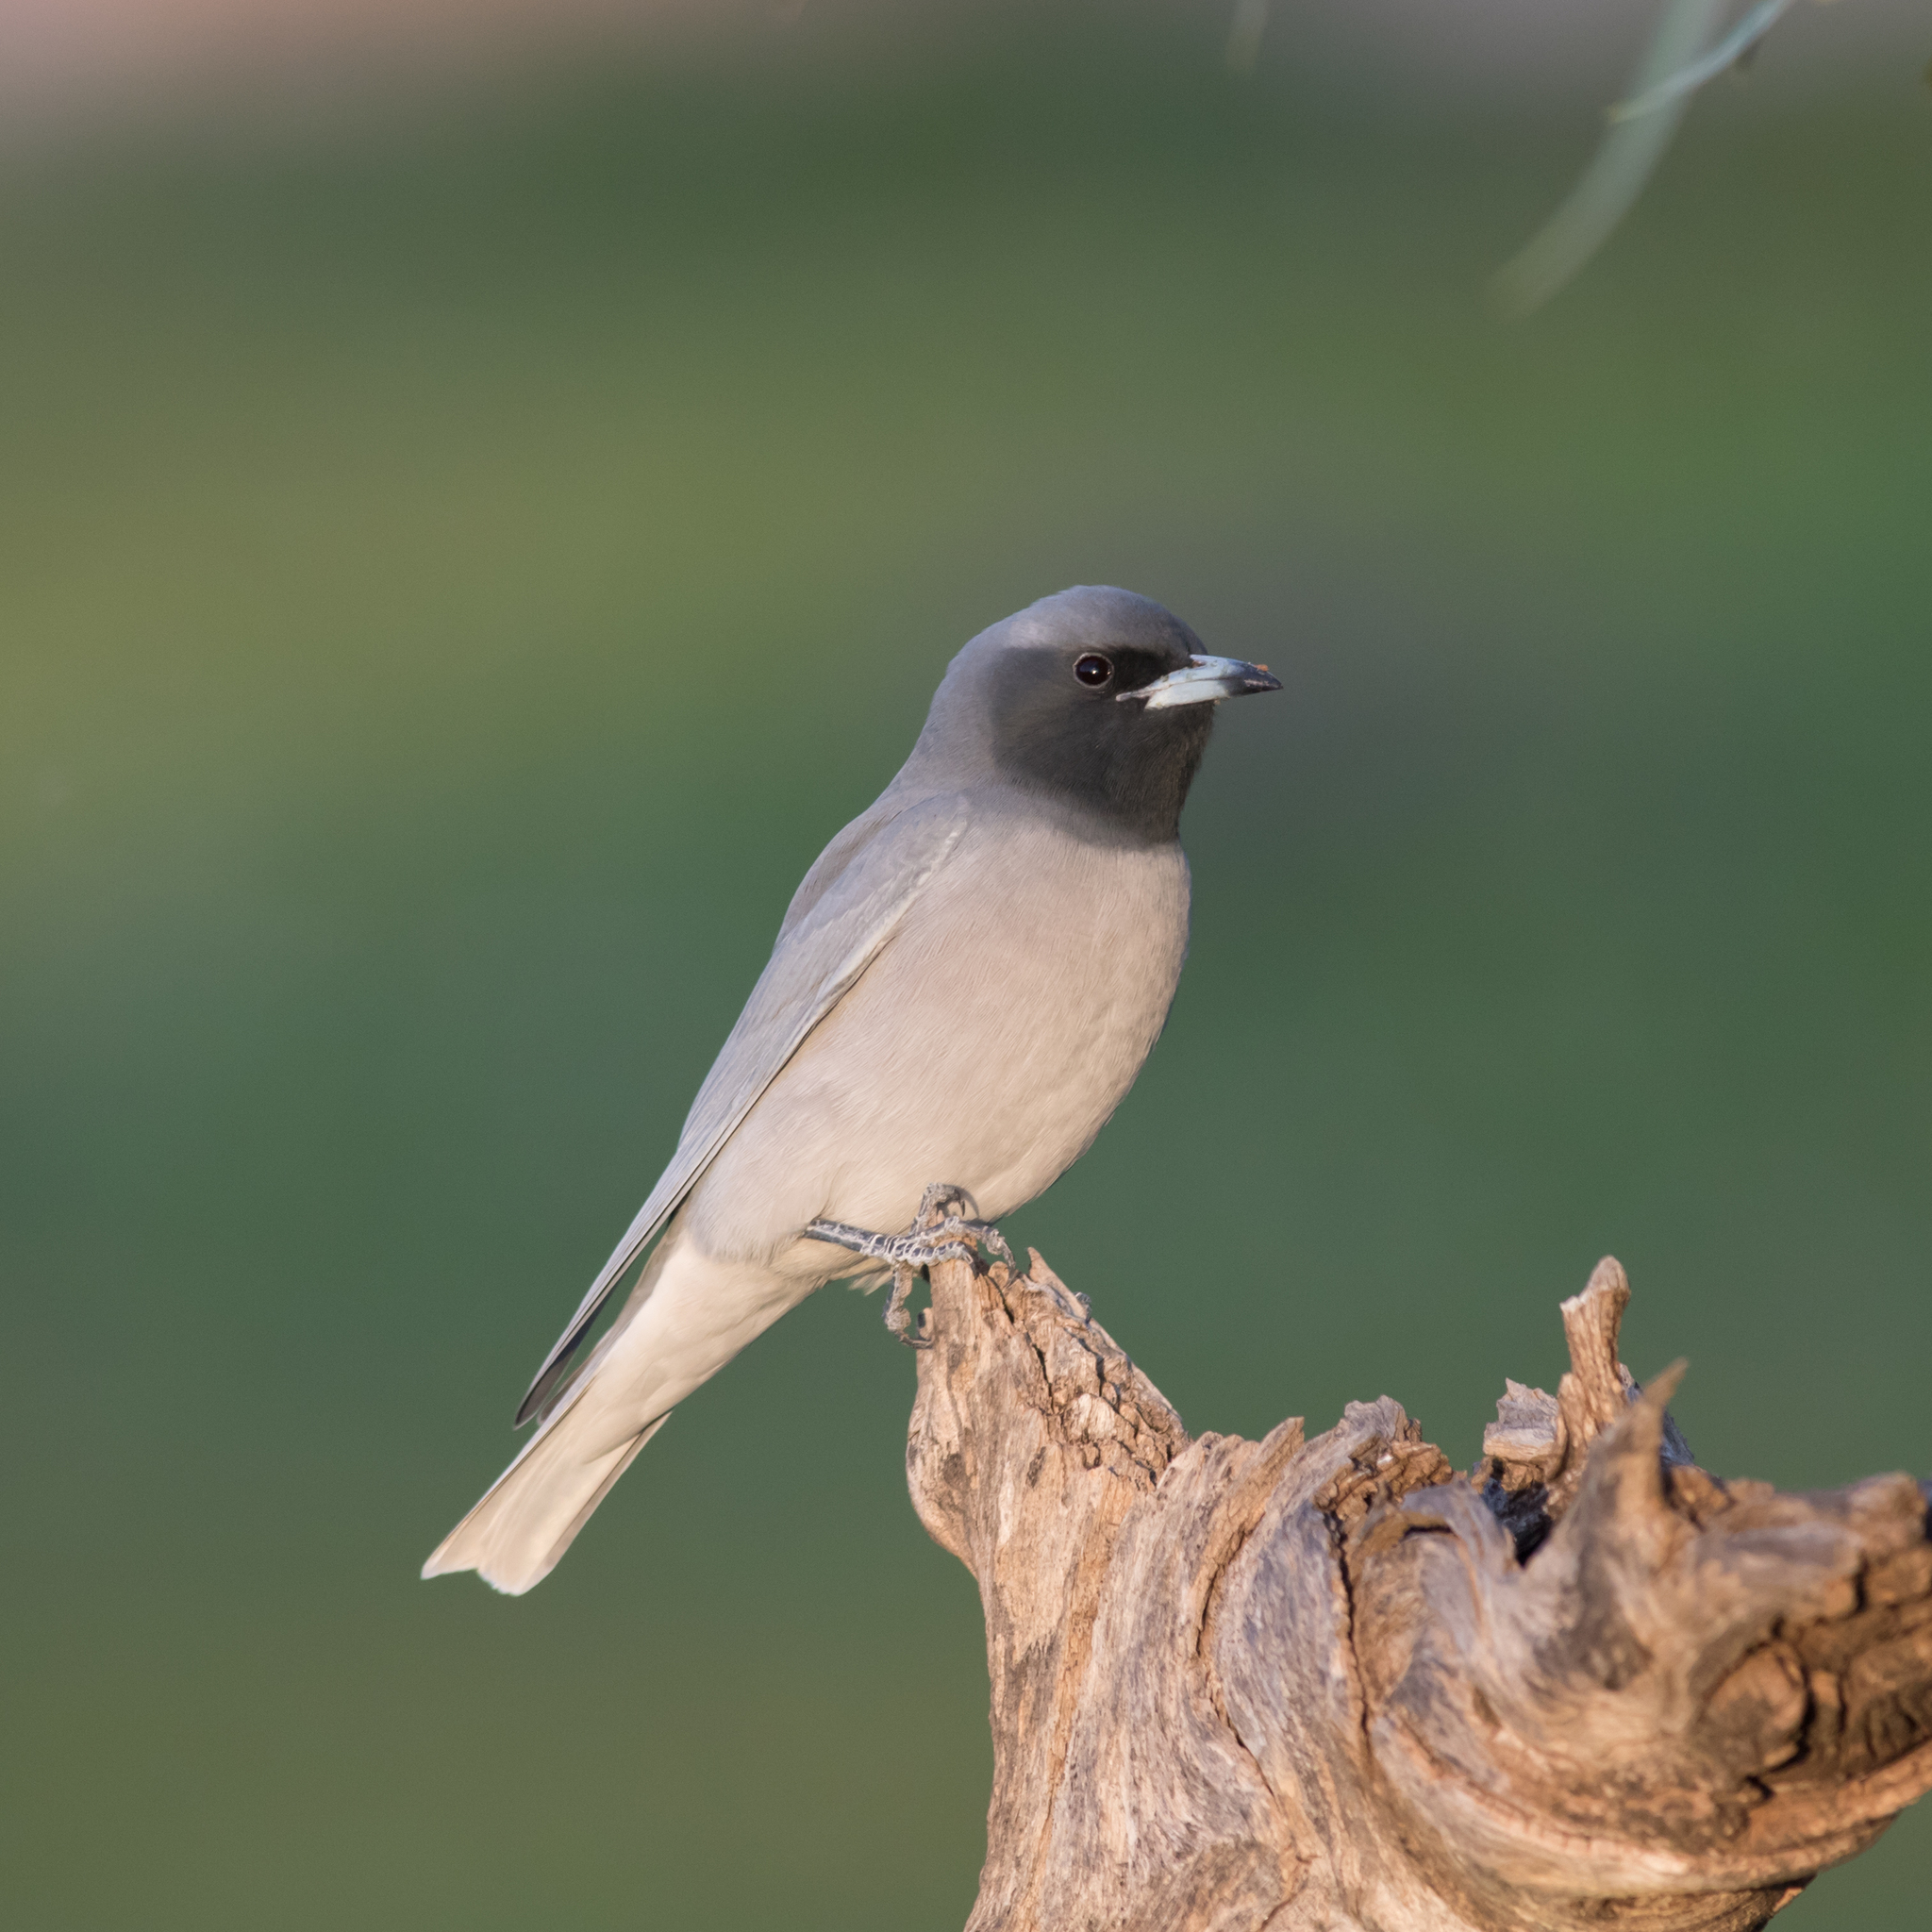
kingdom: Animalia
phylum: Chordata
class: Aves
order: Passeriformes
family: Artamidae
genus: Artamus
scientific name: Artamus personatus
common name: Masked woodswallow
